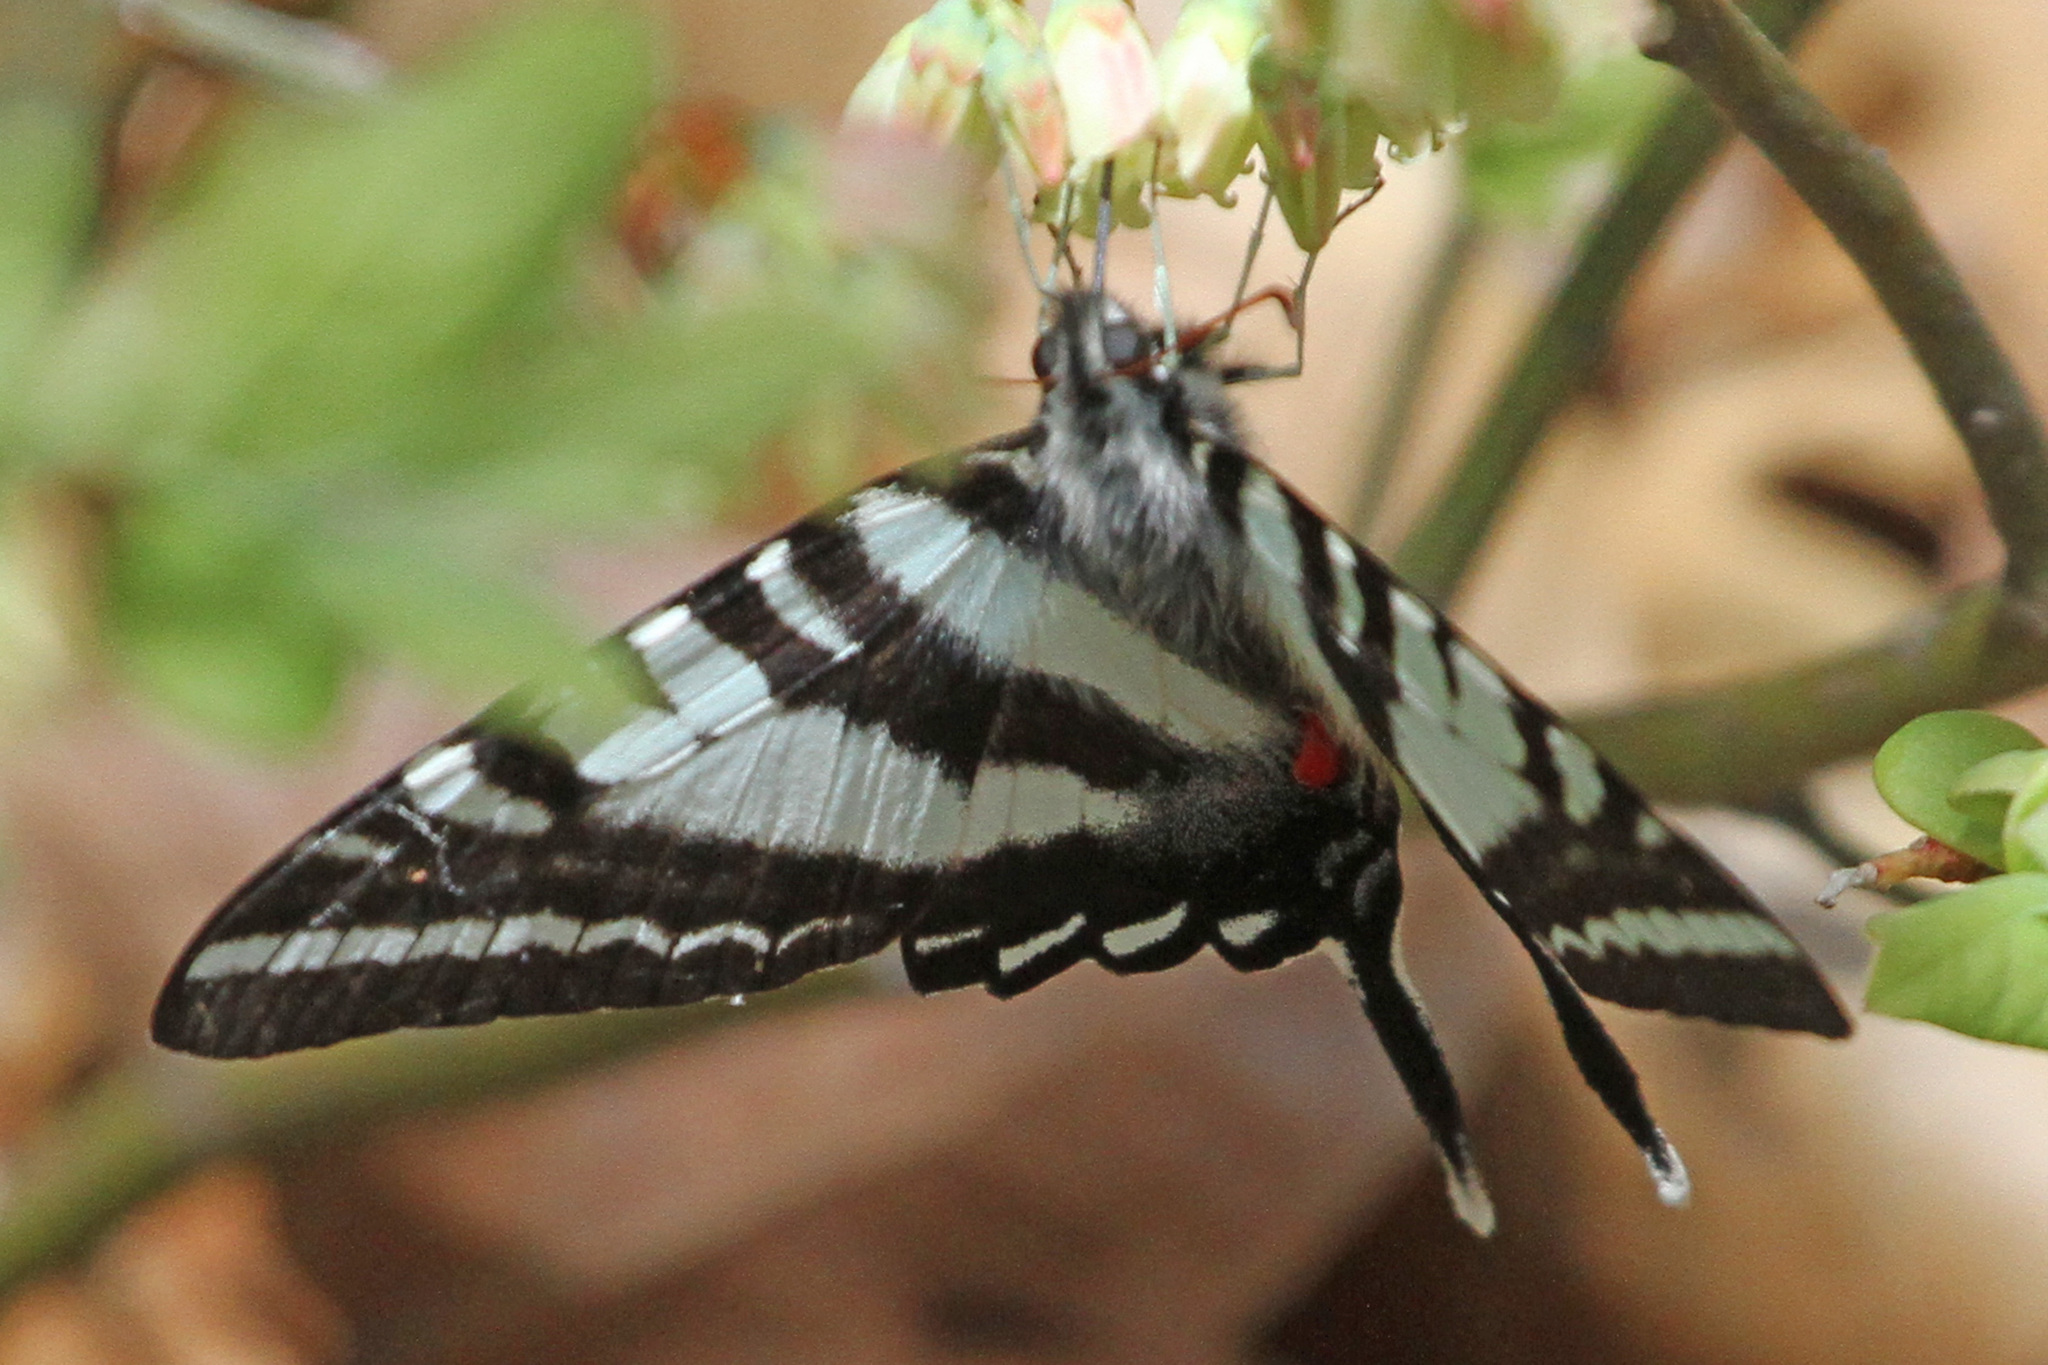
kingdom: Animalia
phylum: Arthropoda
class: Insecta
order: Lepidoptera
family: Papilionidae
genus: Protographium
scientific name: Protographium marcellus
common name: Zebra swallowtail
